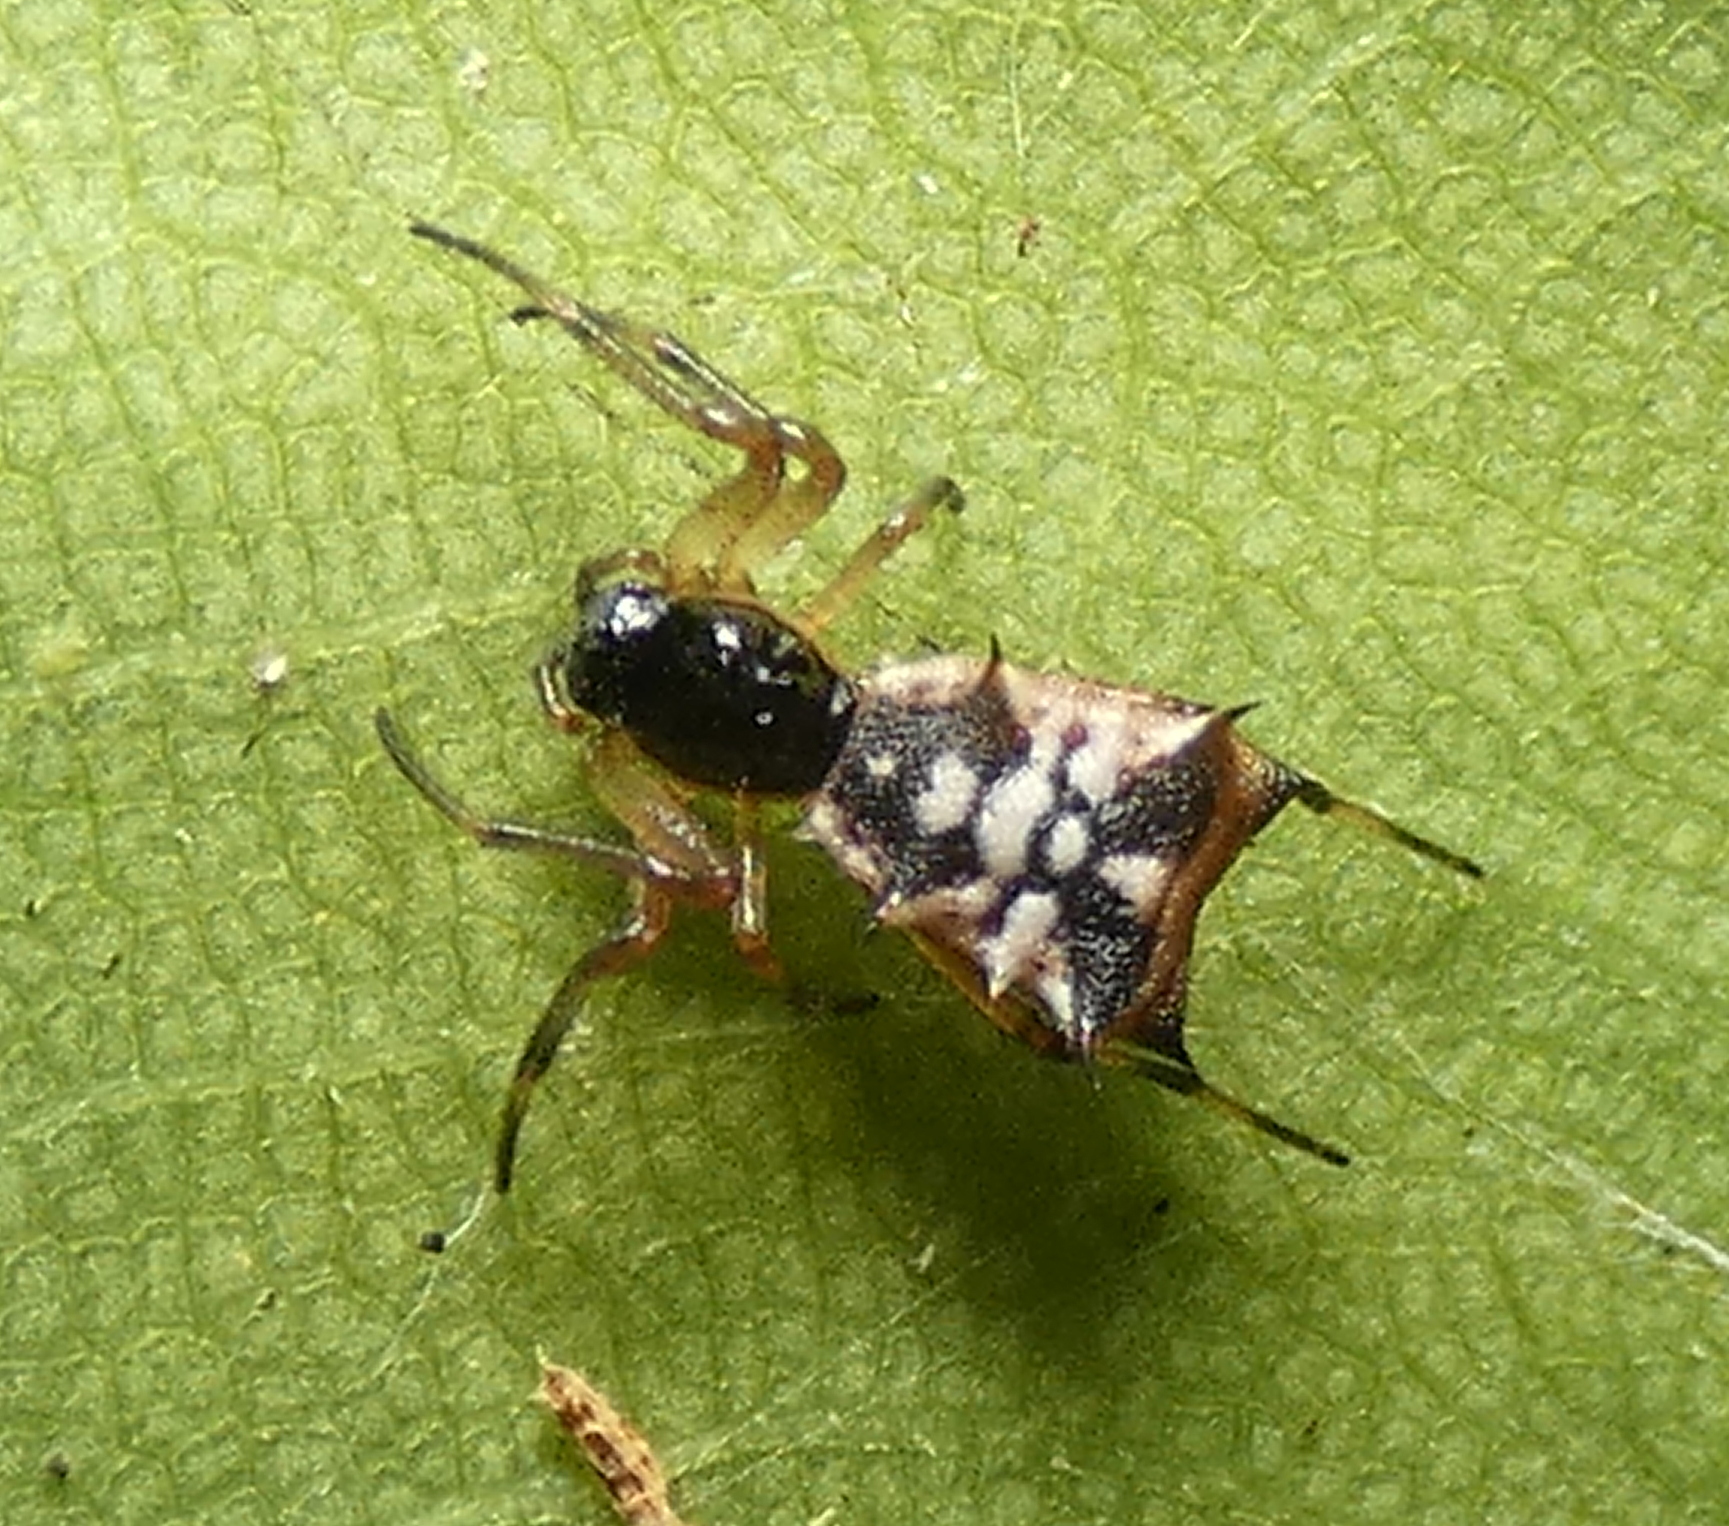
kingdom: Animalia
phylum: Arthropoda
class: Arachnida
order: Araneae
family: Araneidae
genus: Micrathena
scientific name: Micrathena picta
